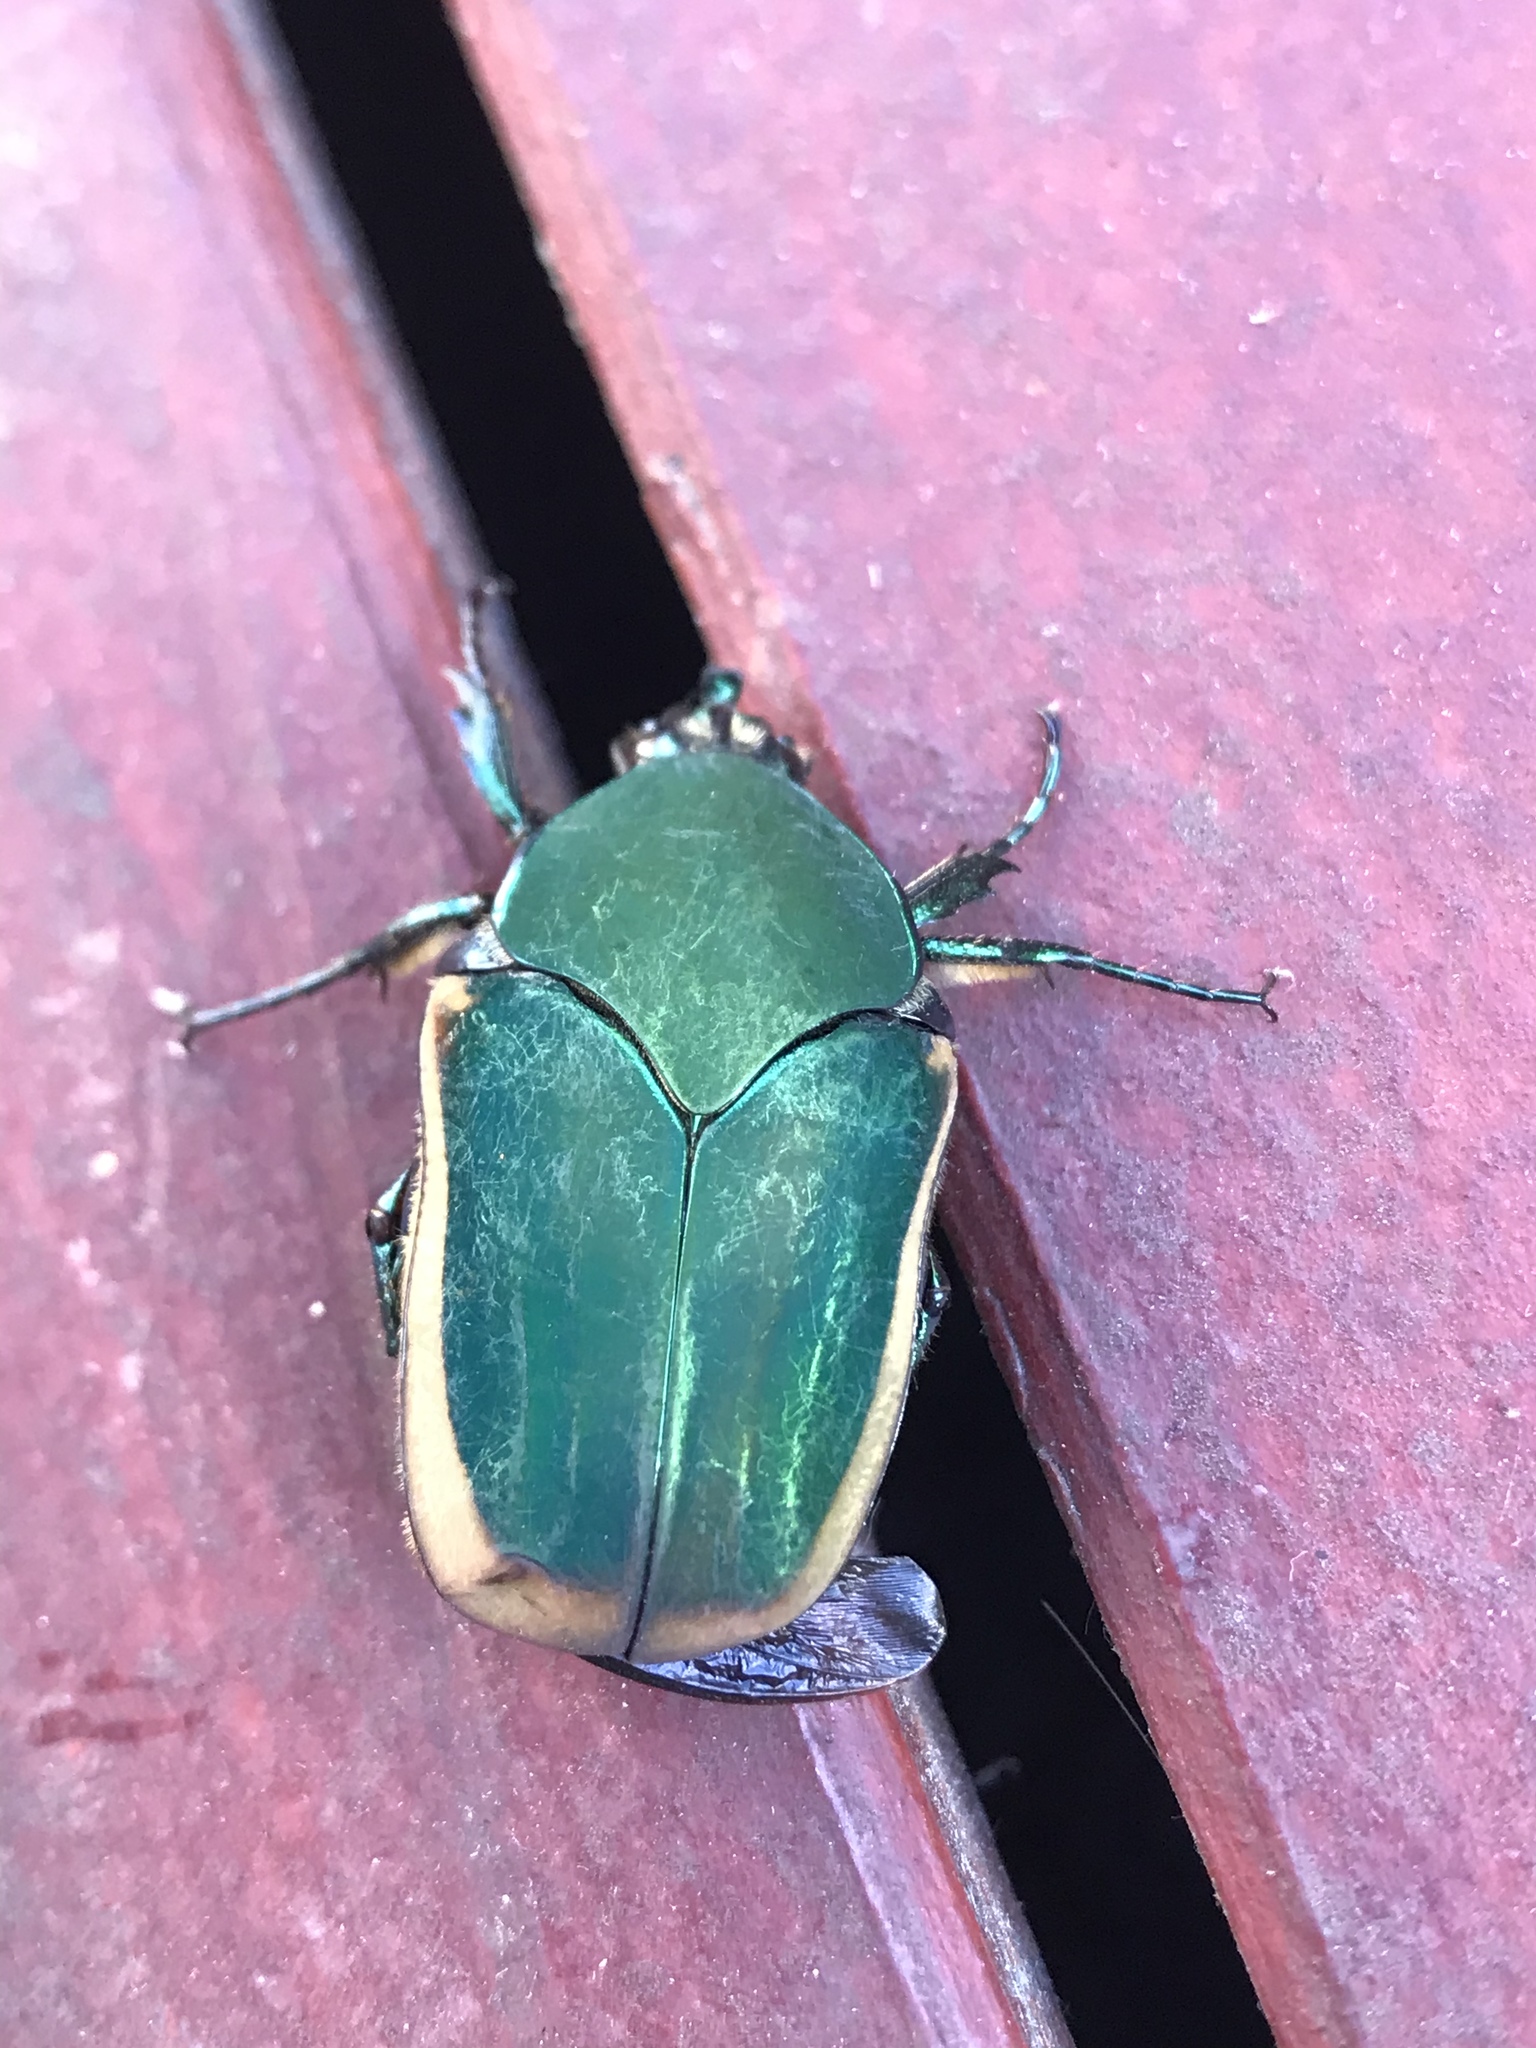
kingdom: Animalia
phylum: Arthropoda
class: Insecta
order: Coleoptera
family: Scarabaeidae
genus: Cotinis
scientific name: Cotinis mutabilis
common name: Figeater beetle
